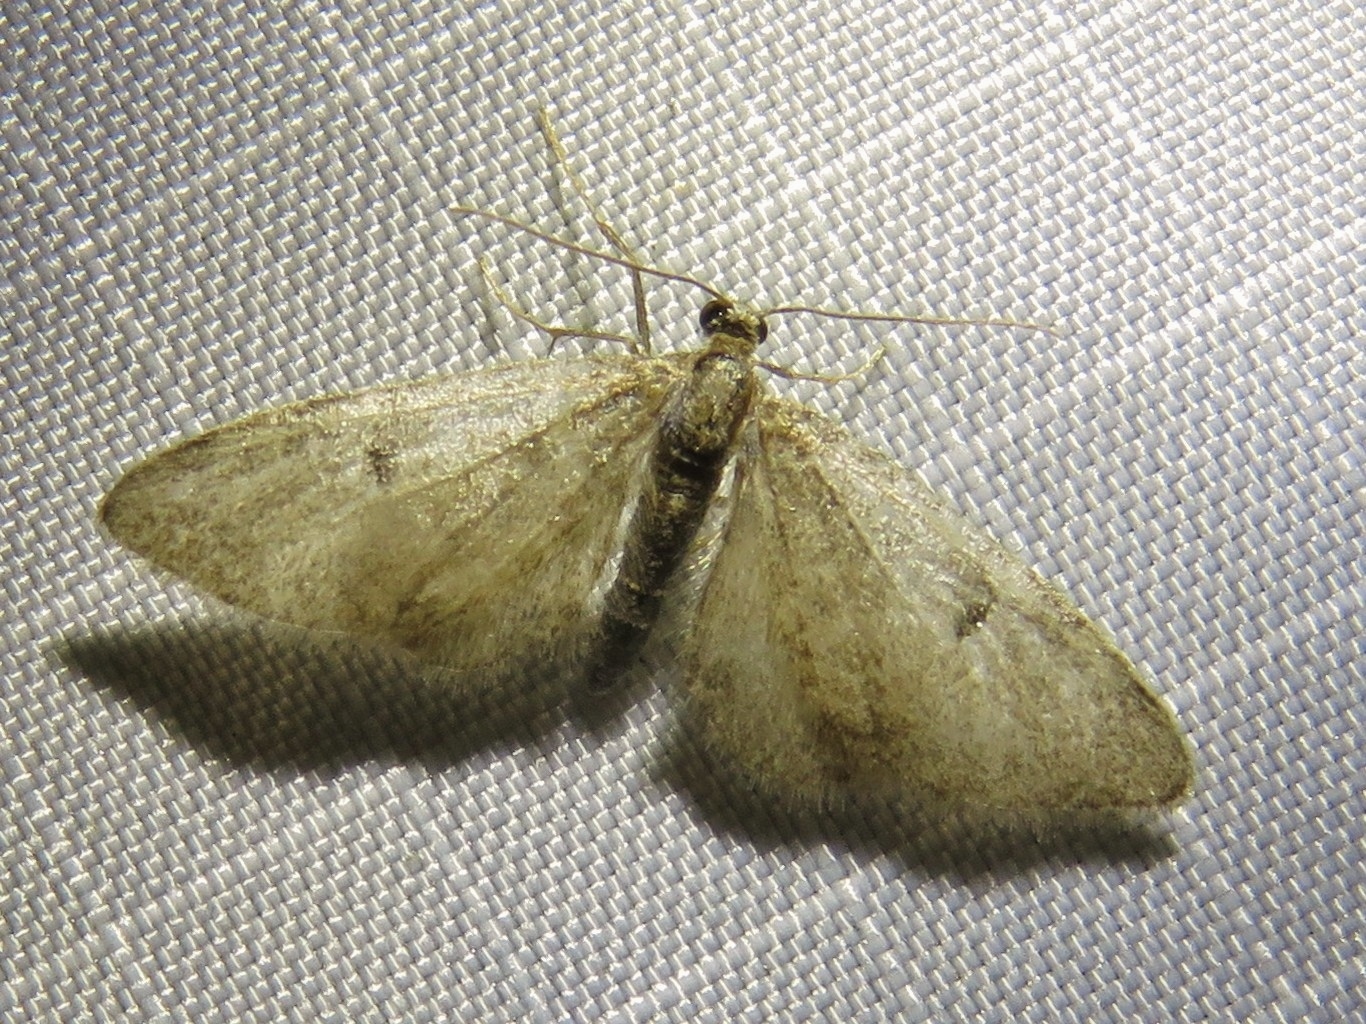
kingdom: Animalia
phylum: Arthropoda
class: Insecta
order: Lepidoptera
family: Geometridae
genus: Eupithecia
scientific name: Eupithecia indigata
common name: Ochreous pug
